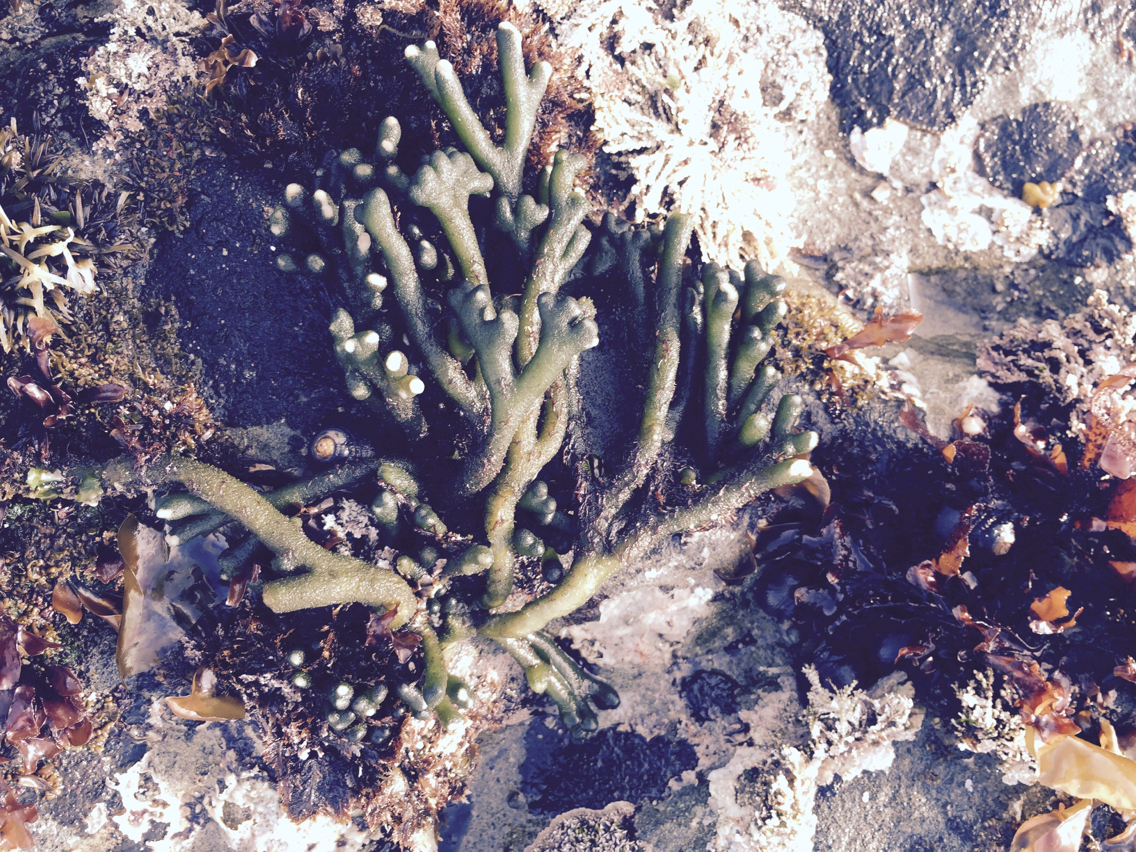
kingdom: Plantae
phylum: Chlorophyta
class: Ulvophyceae
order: Bryopsidales
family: Codiaceae
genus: Codium
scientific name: Codium fragile
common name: Dead man's fingers
